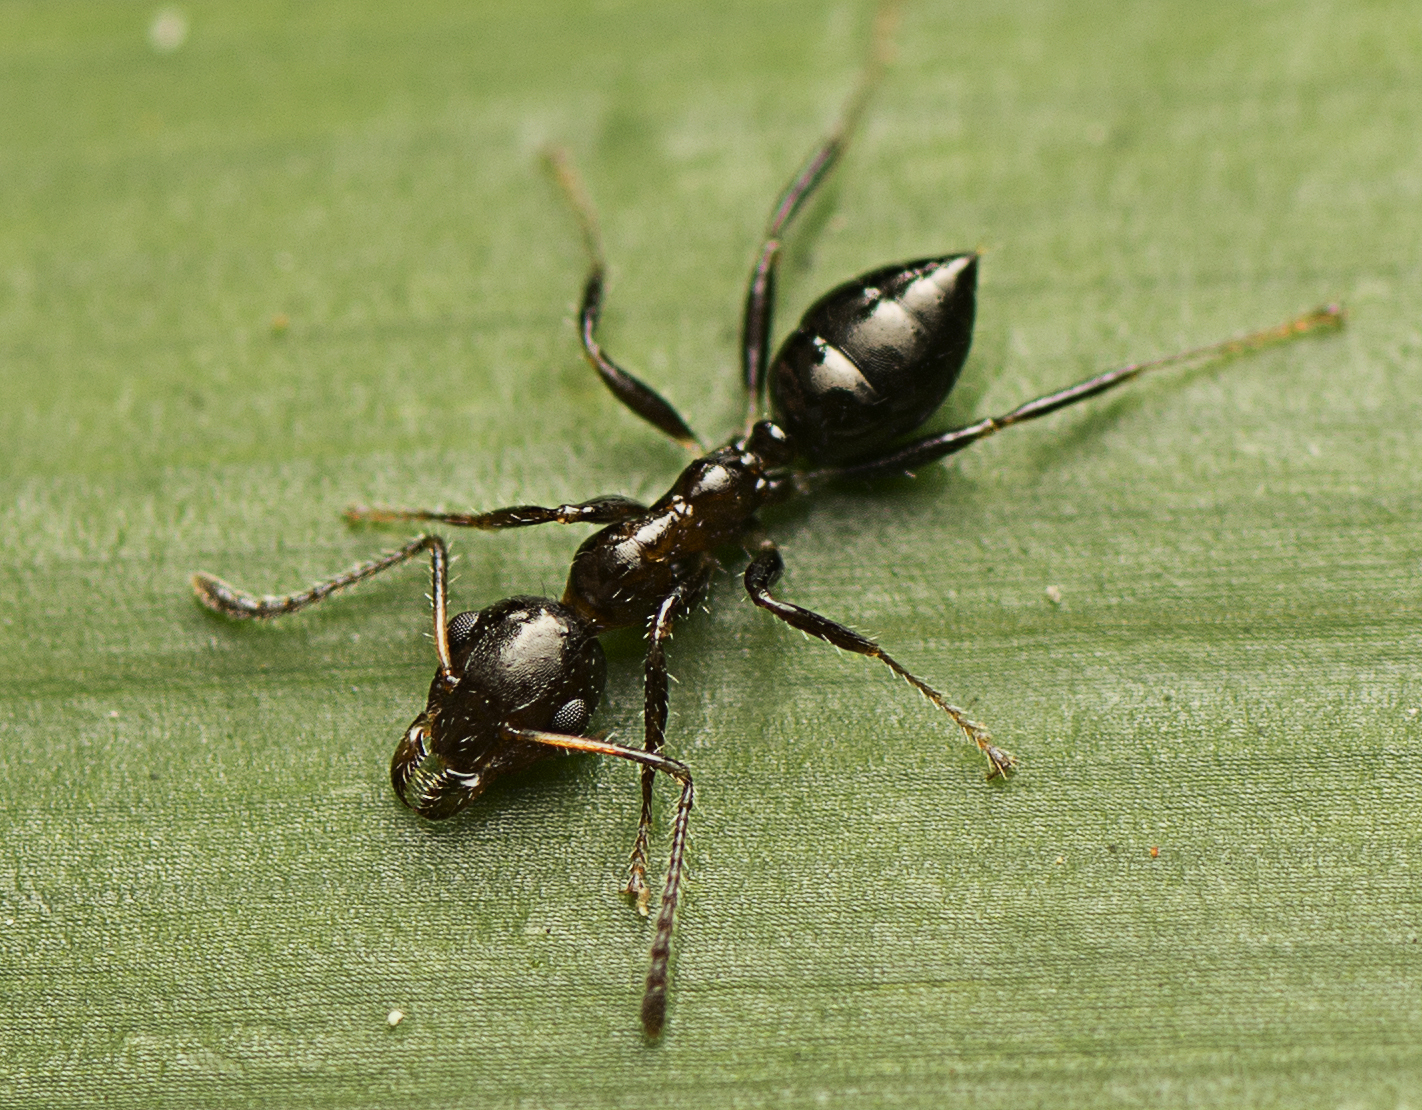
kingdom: Animalia
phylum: Arthropoda
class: Insecta
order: Hymenoptera
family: Formicidae
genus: Myrmecorhynchus
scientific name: Myrmecorhynchus emeryi
